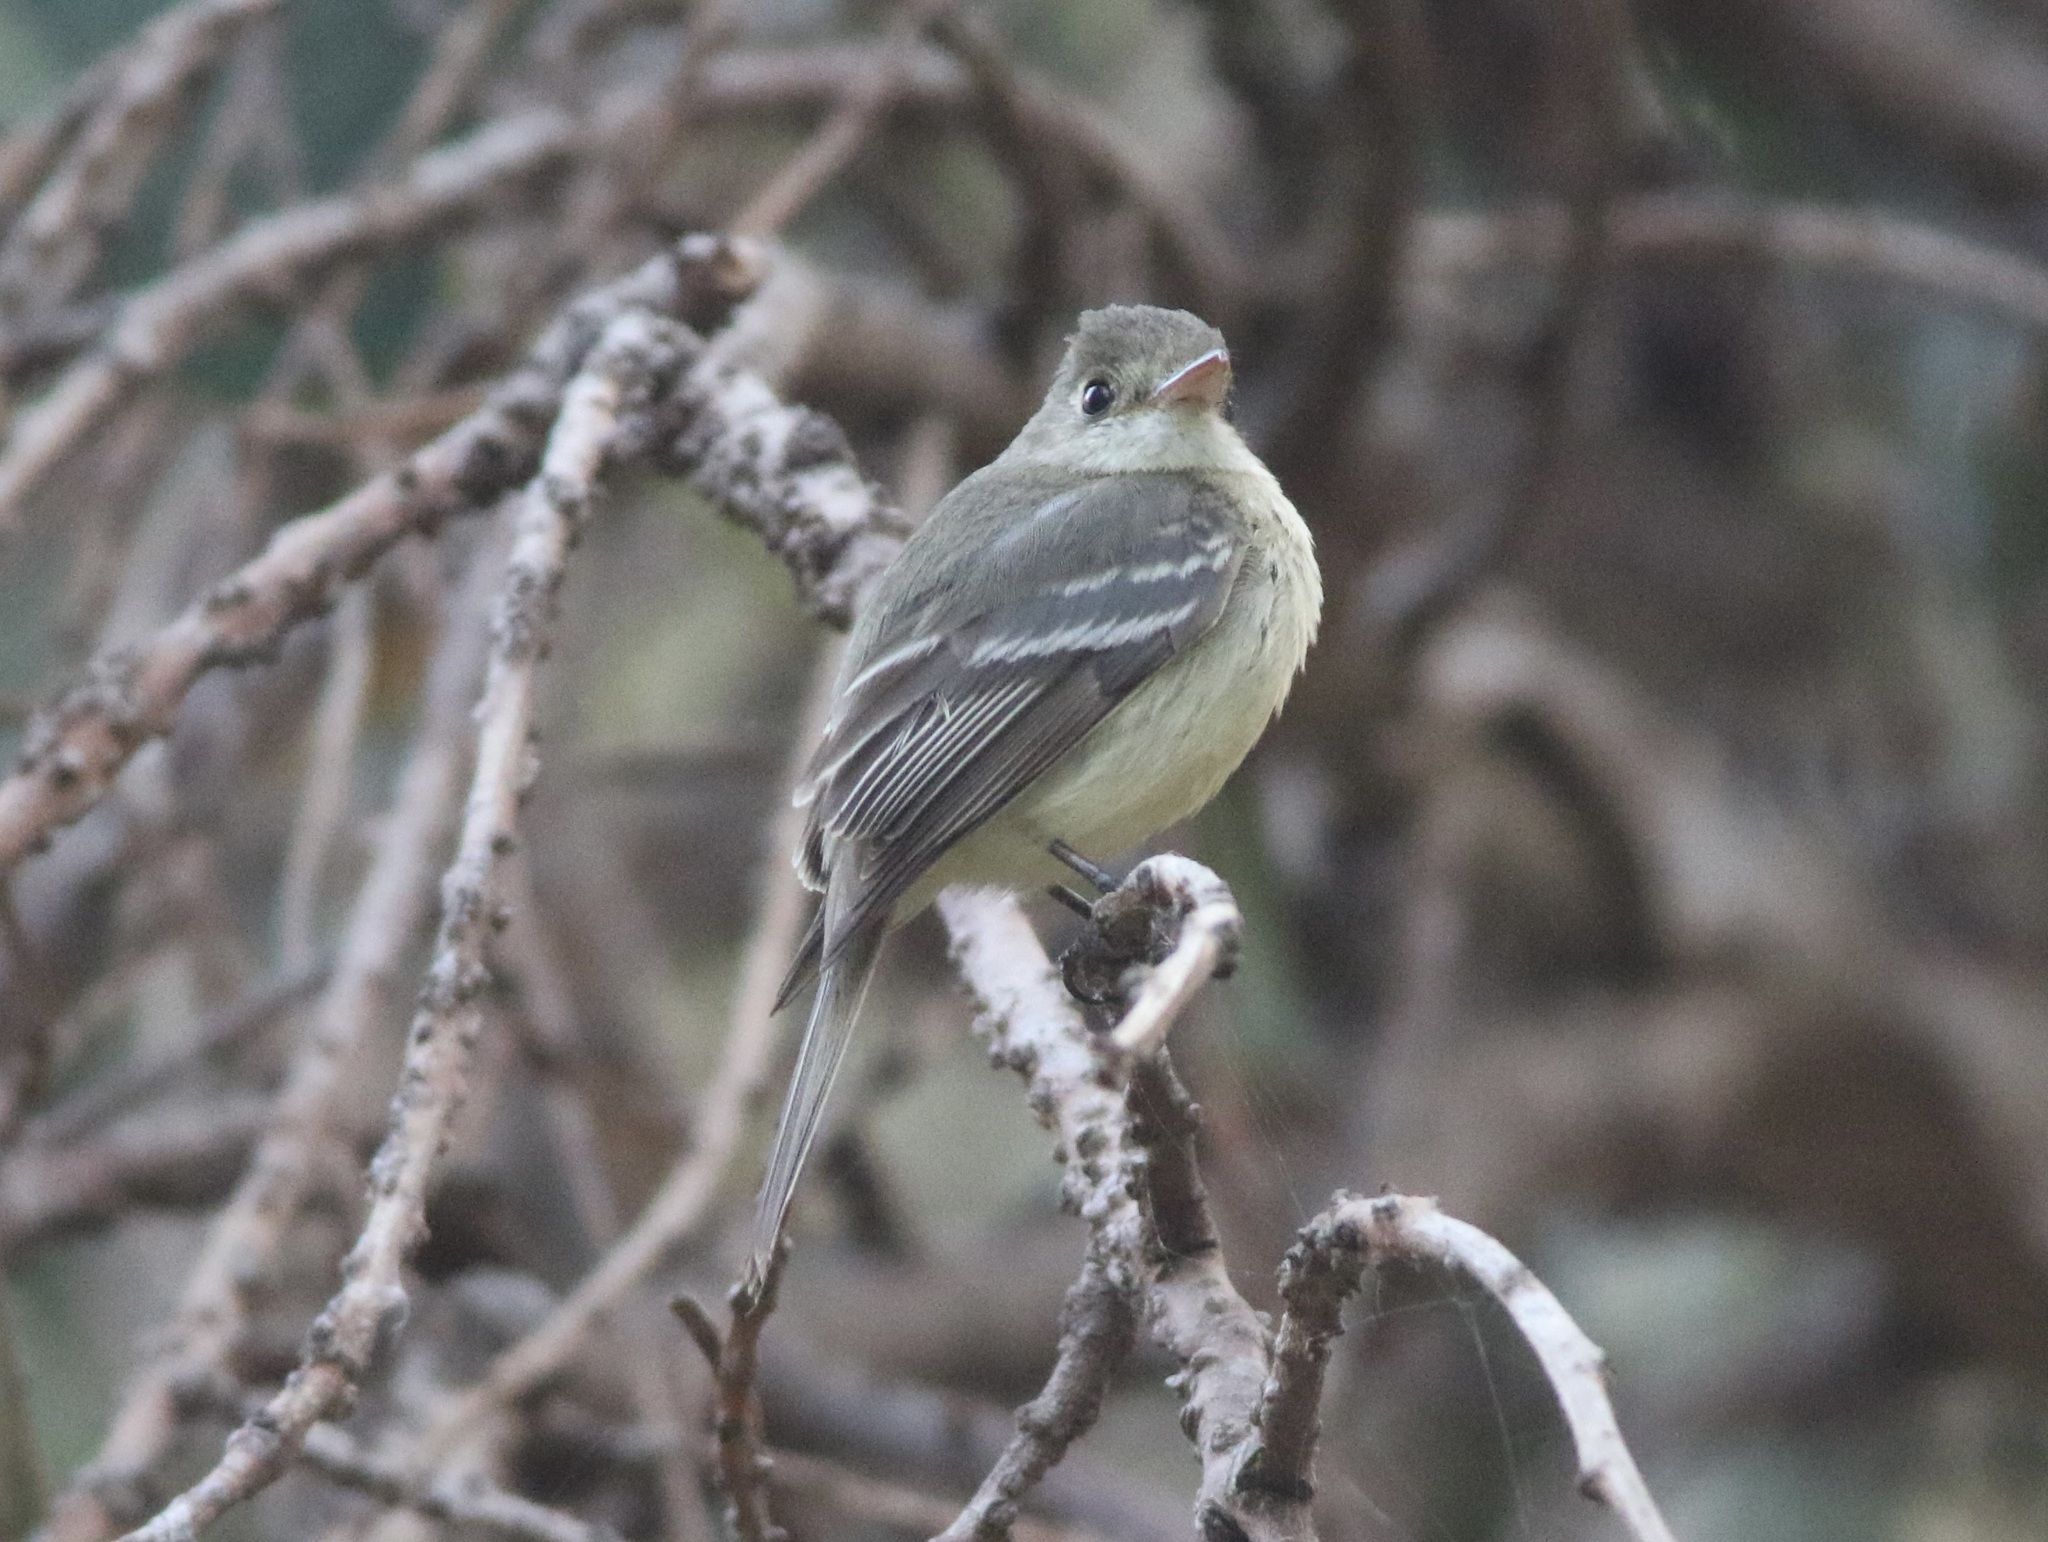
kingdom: Animalia
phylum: Chordata
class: Aves
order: Passeriformes
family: Tyrannidae
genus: Empidonax
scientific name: Empidonax difficilis
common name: Pacific-slope flycatcher
